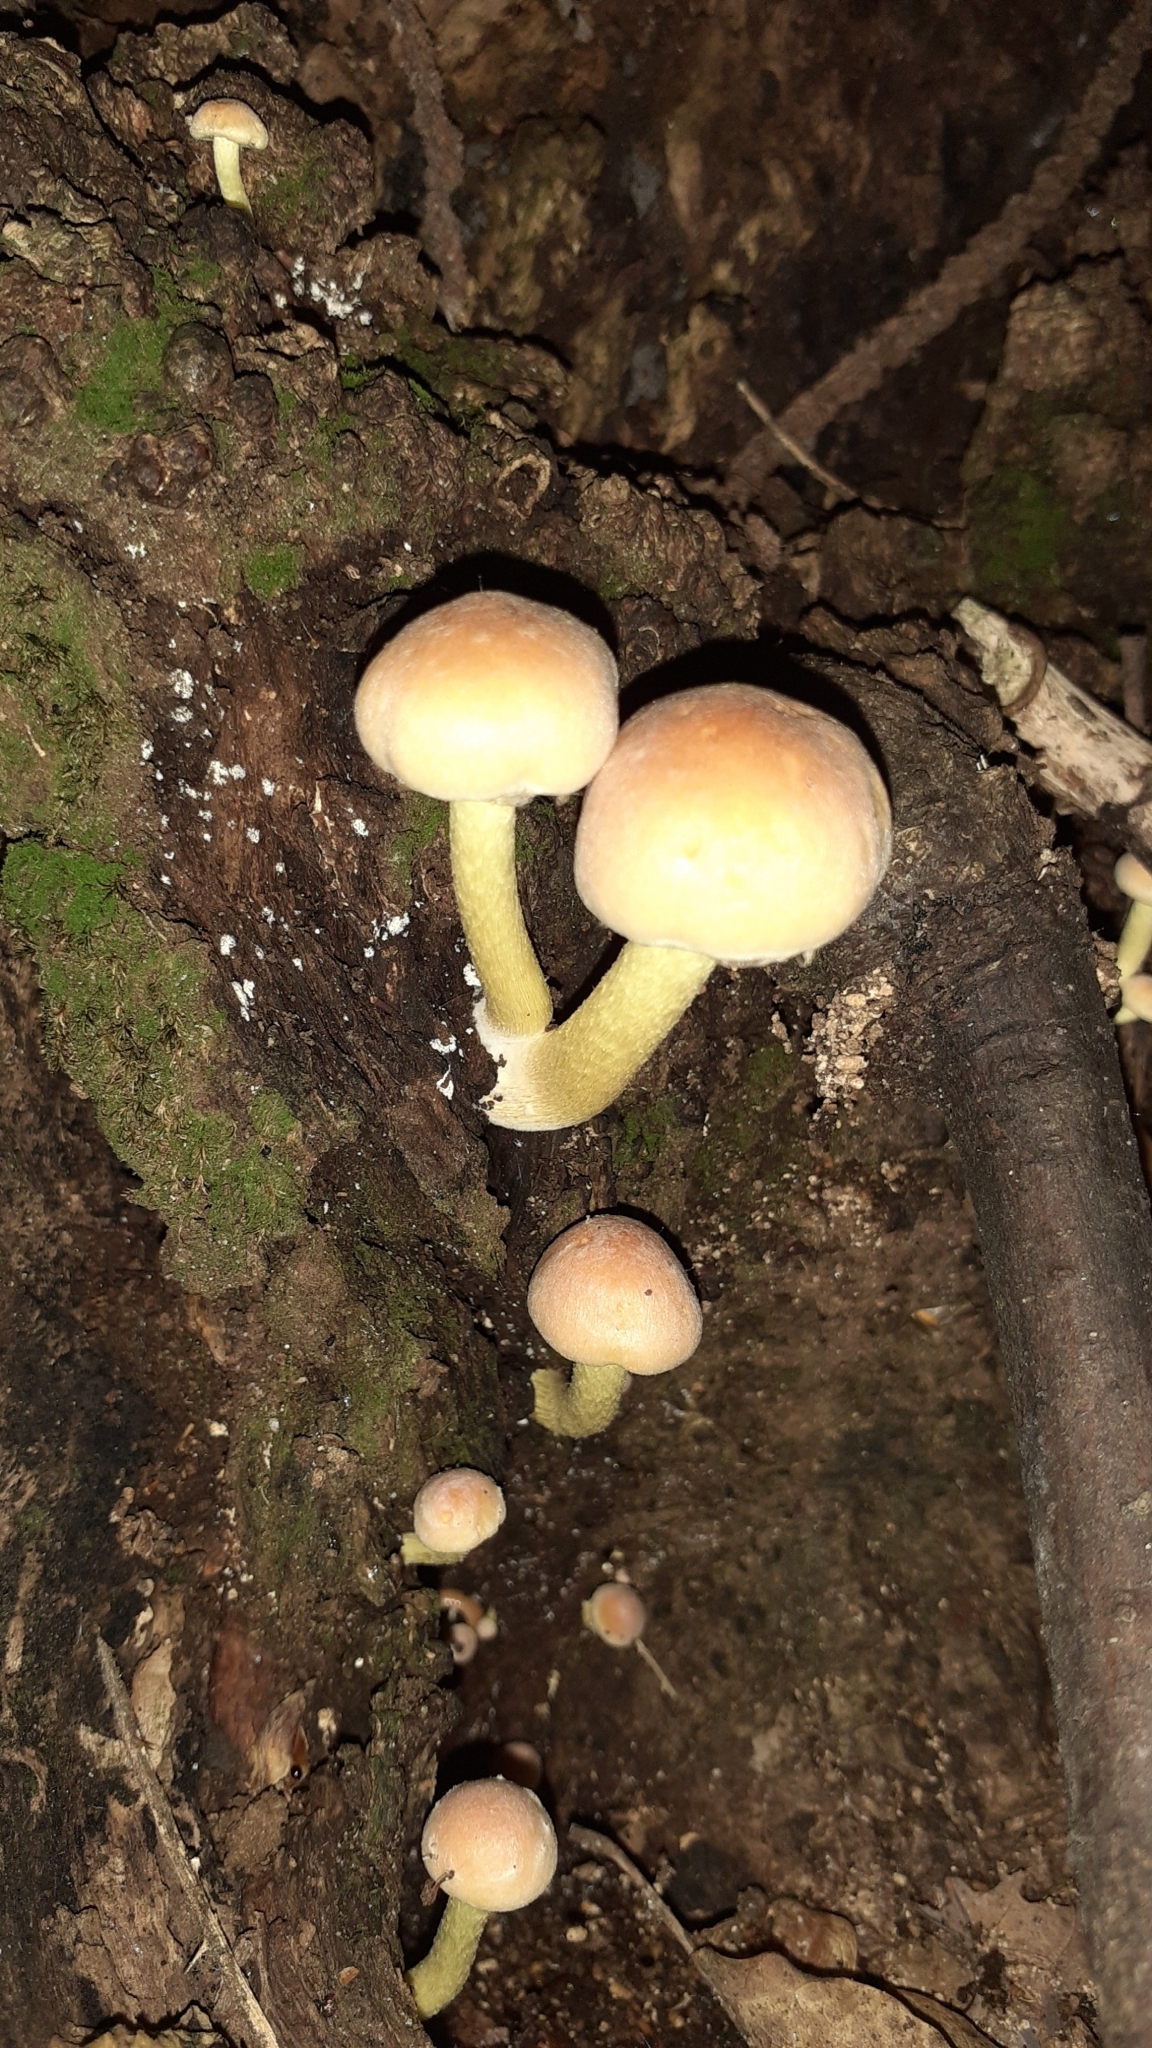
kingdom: Fungi
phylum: Basidiomycota
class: Agaricomycetes
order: Agaricales
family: Strophariaceae
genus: Hypholoma
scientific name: Hypholoma fasciculare
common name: Sulphur tuft
